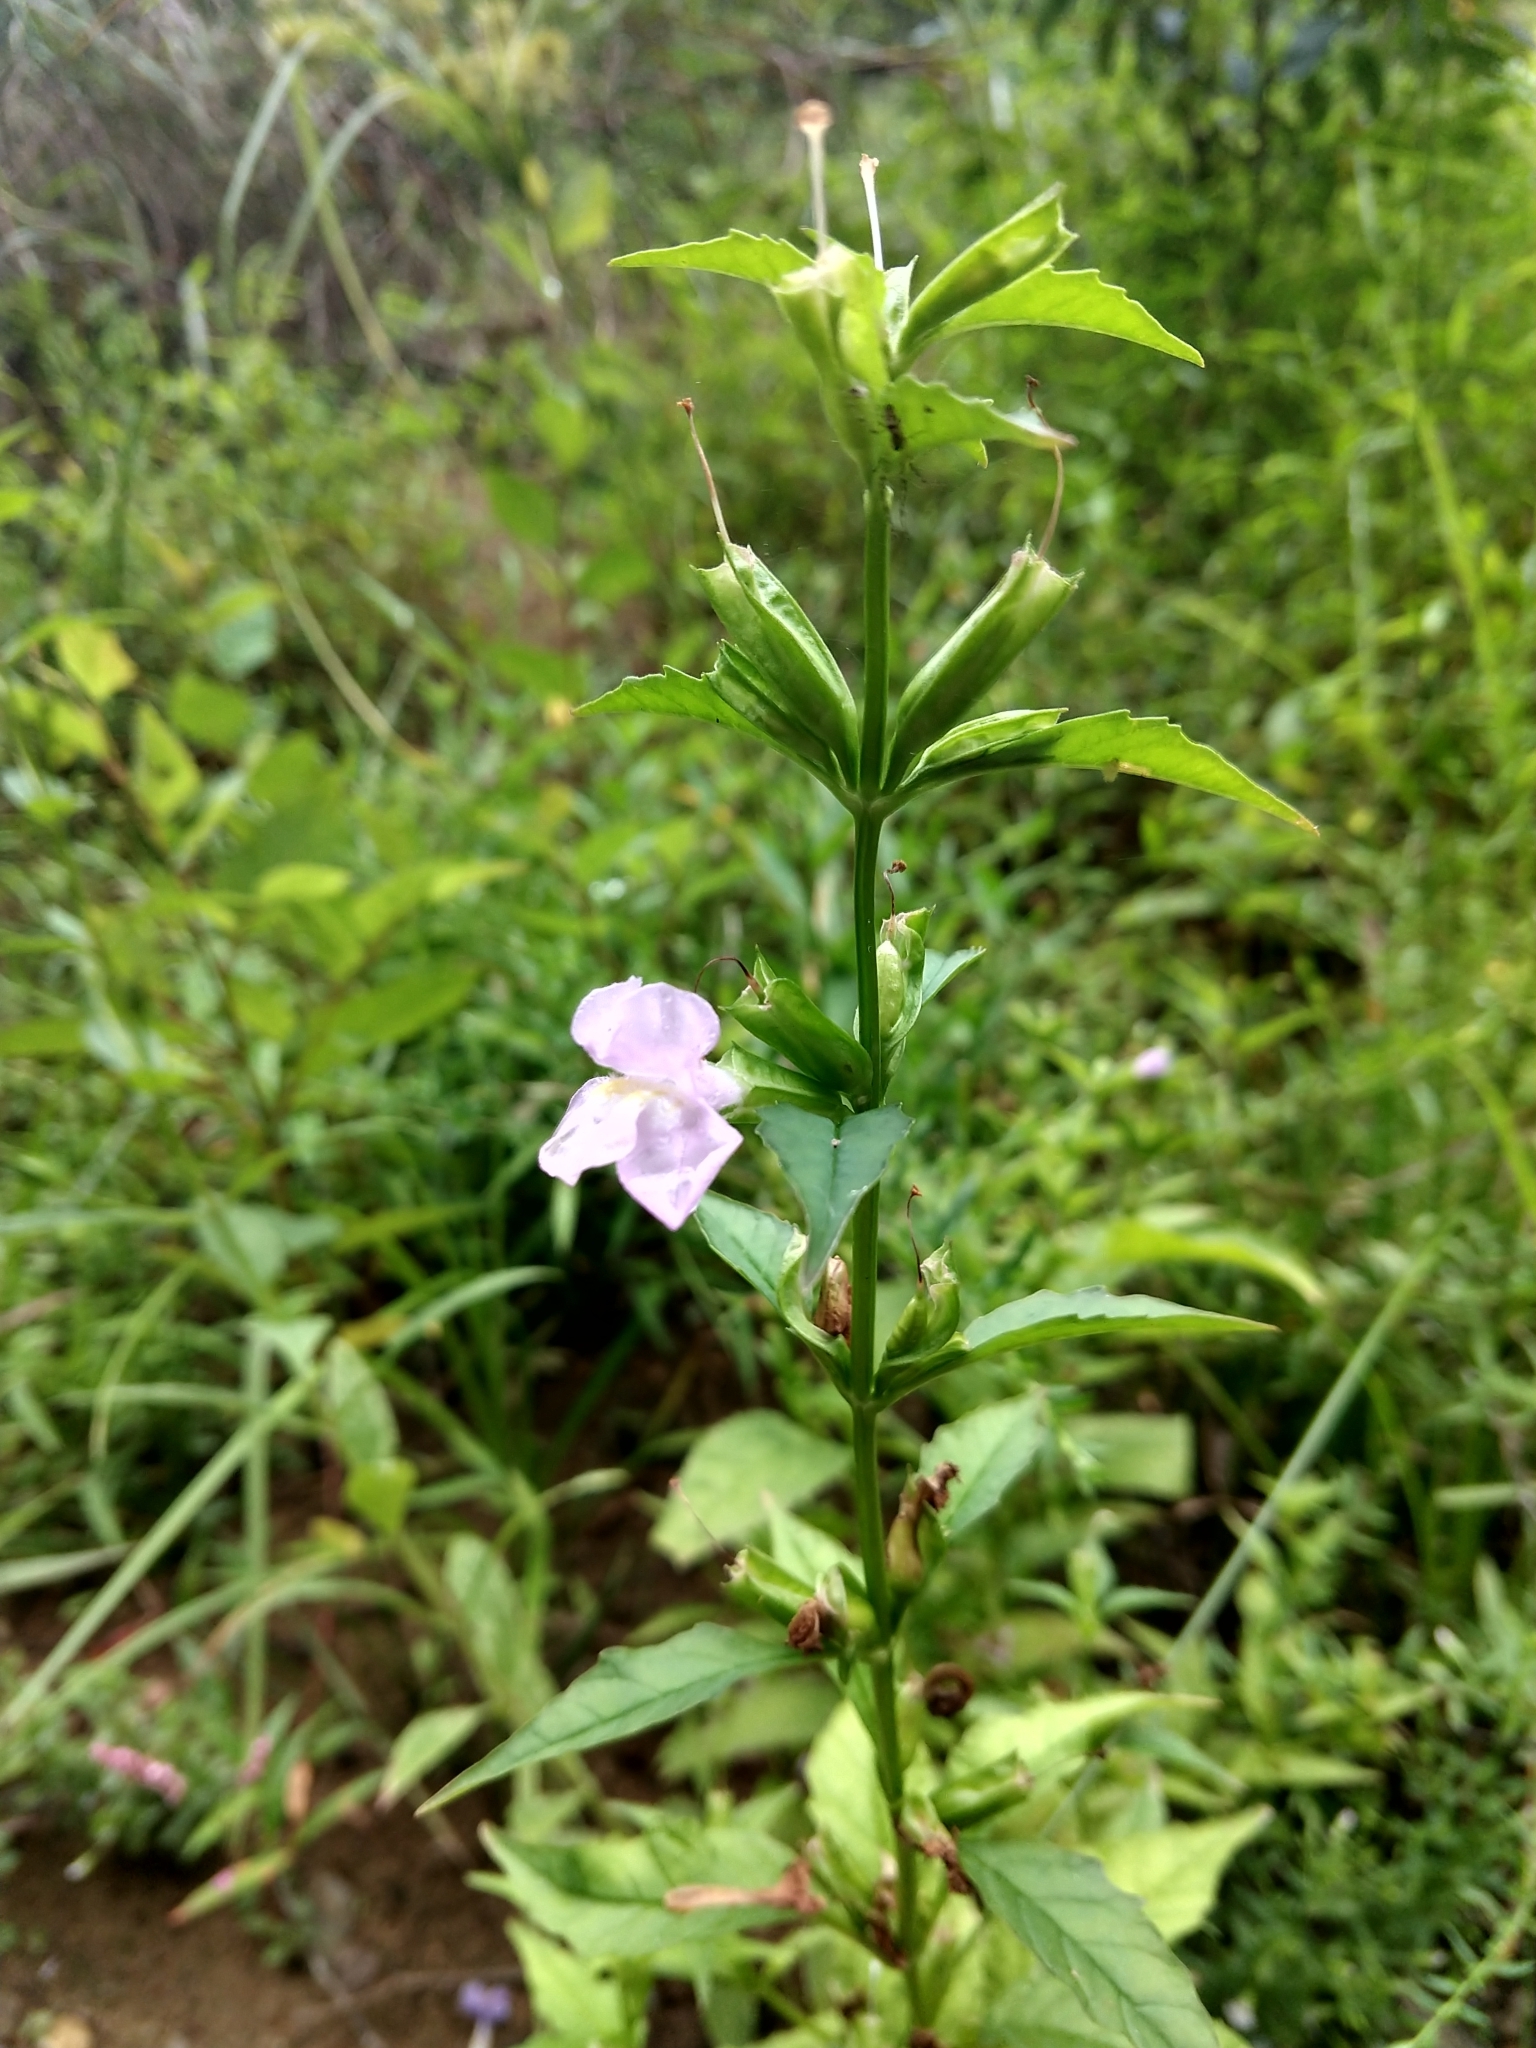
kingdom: Plantae
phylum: Tracheophyta
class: Magnoliopsida
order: Lamiales
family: Phrymaceae
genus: Mimulus
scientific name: Mimulus alatus
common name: Sharp-wing monkey-flower
